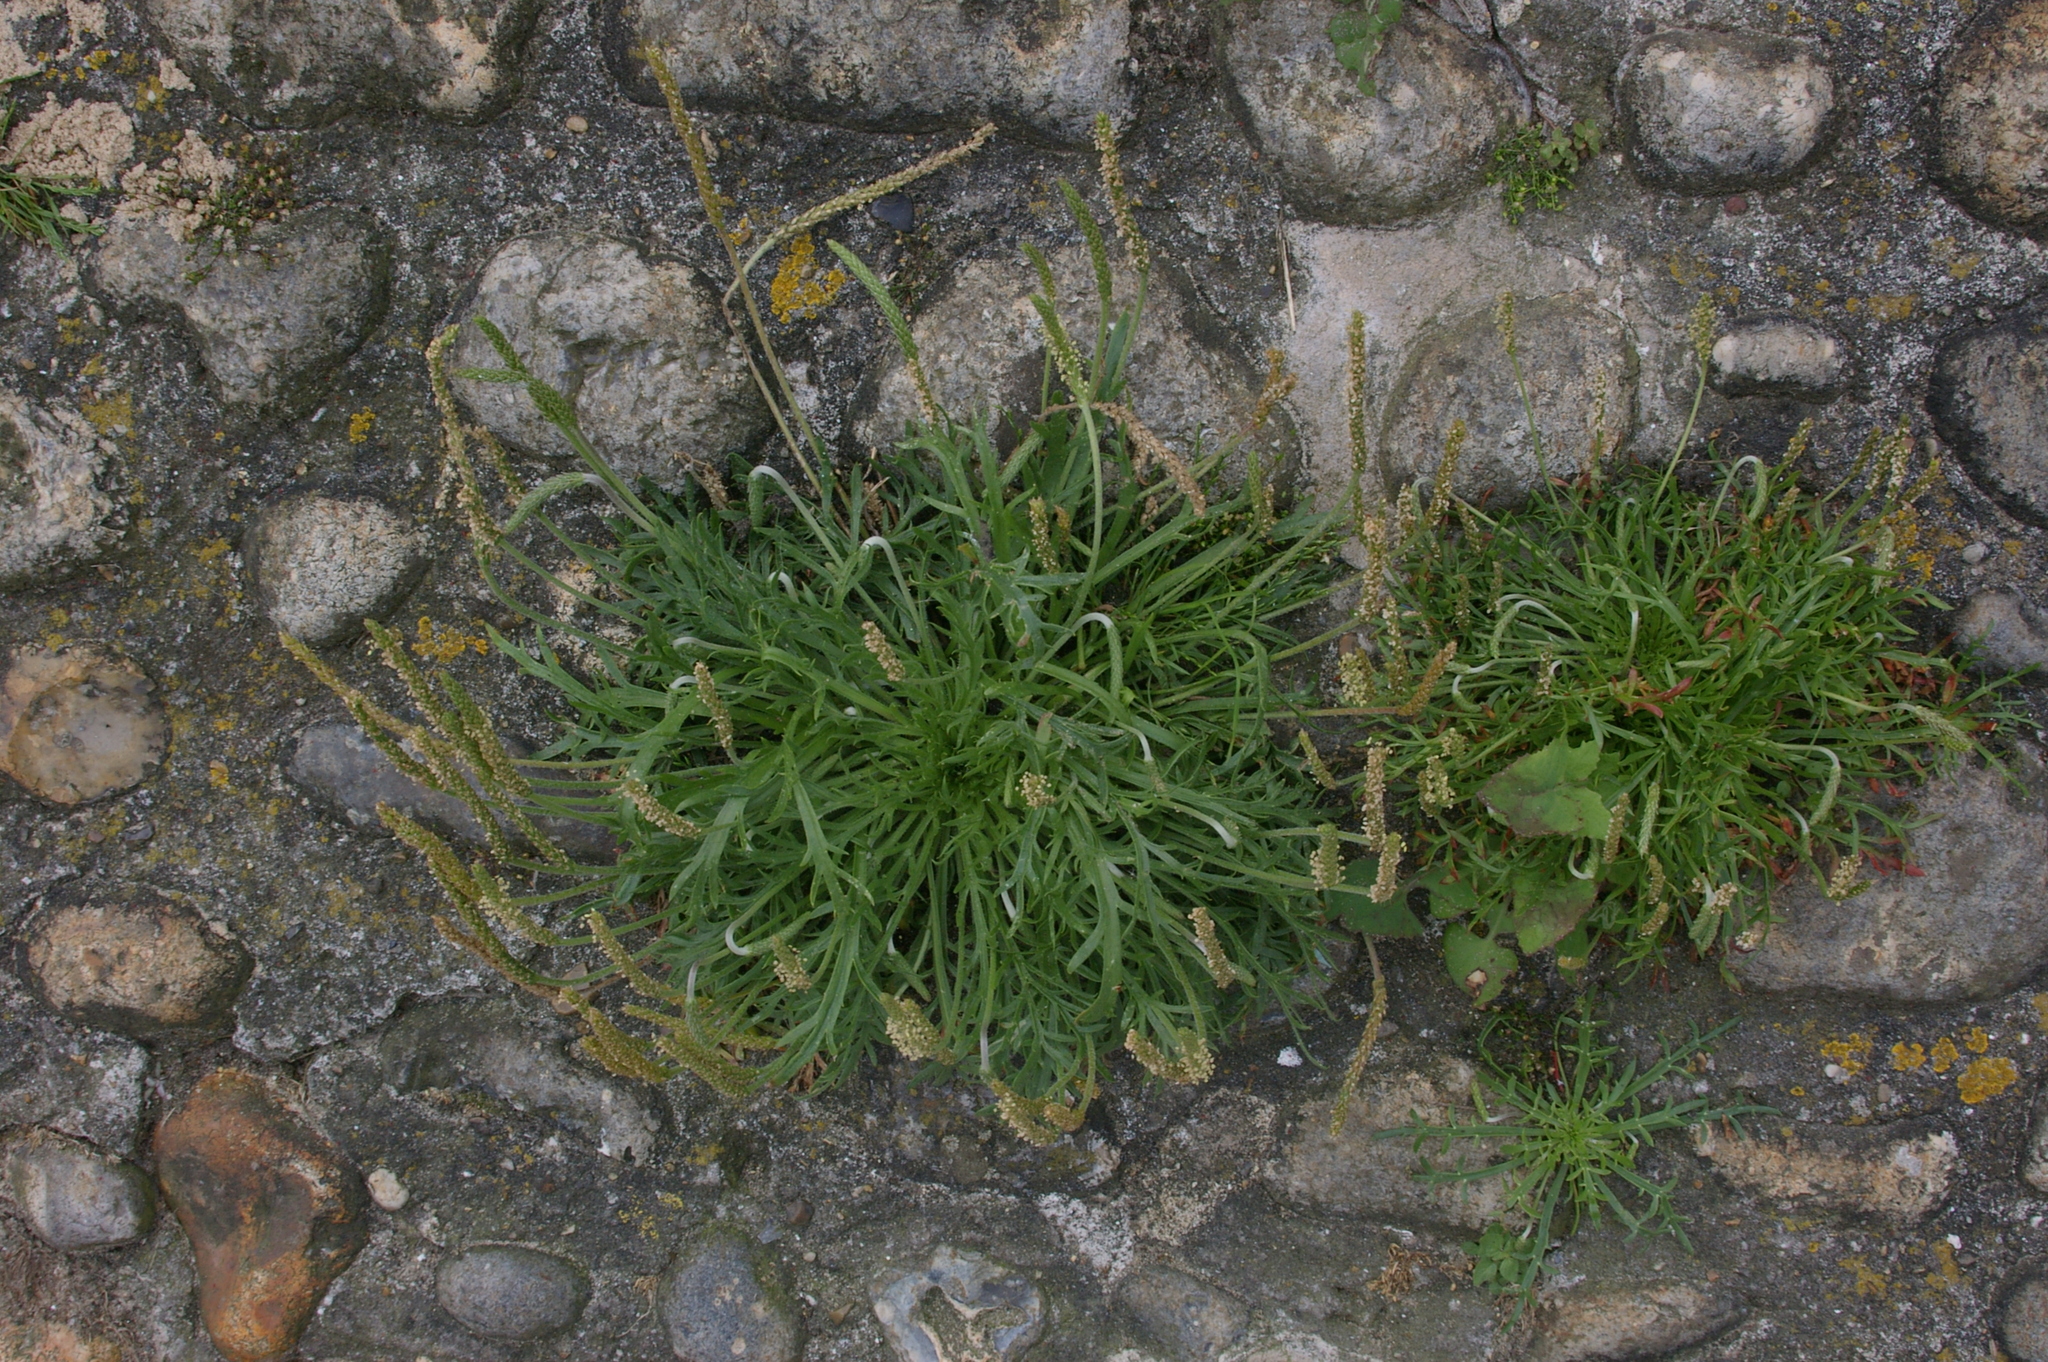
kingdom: Plantae
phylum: Tracheophyta
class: Magnoliopsida
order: Lamiales
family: Plantaginaceae
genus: Plantago
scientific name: Plantago coronopus
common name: Buck's-horn plantain
